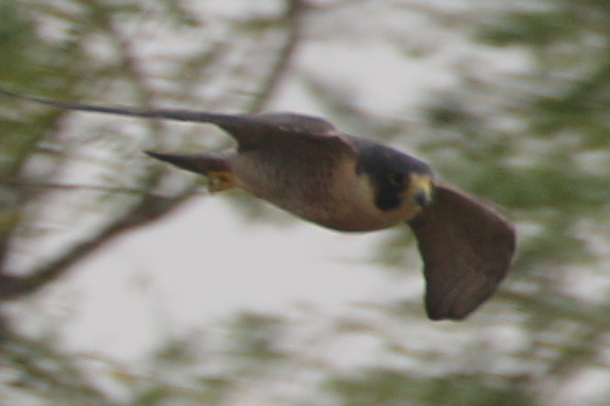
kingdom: Animalia
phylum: Chordata
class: Aves
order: Falconiformes
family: Falconidae
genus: Falco
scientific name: Falco peregrinus
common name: Peregrine falcon
